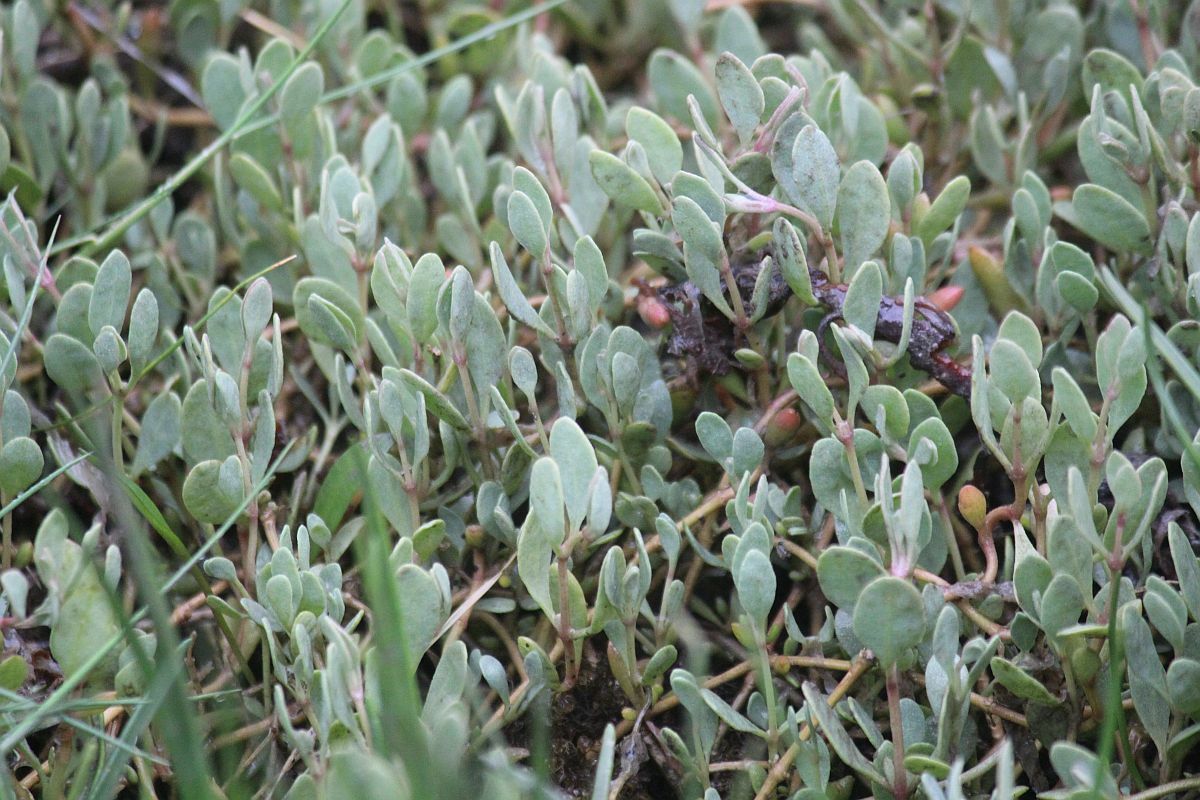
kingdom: Plantae
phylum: Tracheophyta
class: Magnoliopsida
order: Caryophyllales
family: Amaranthaceae
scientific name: Amaranthaceae
